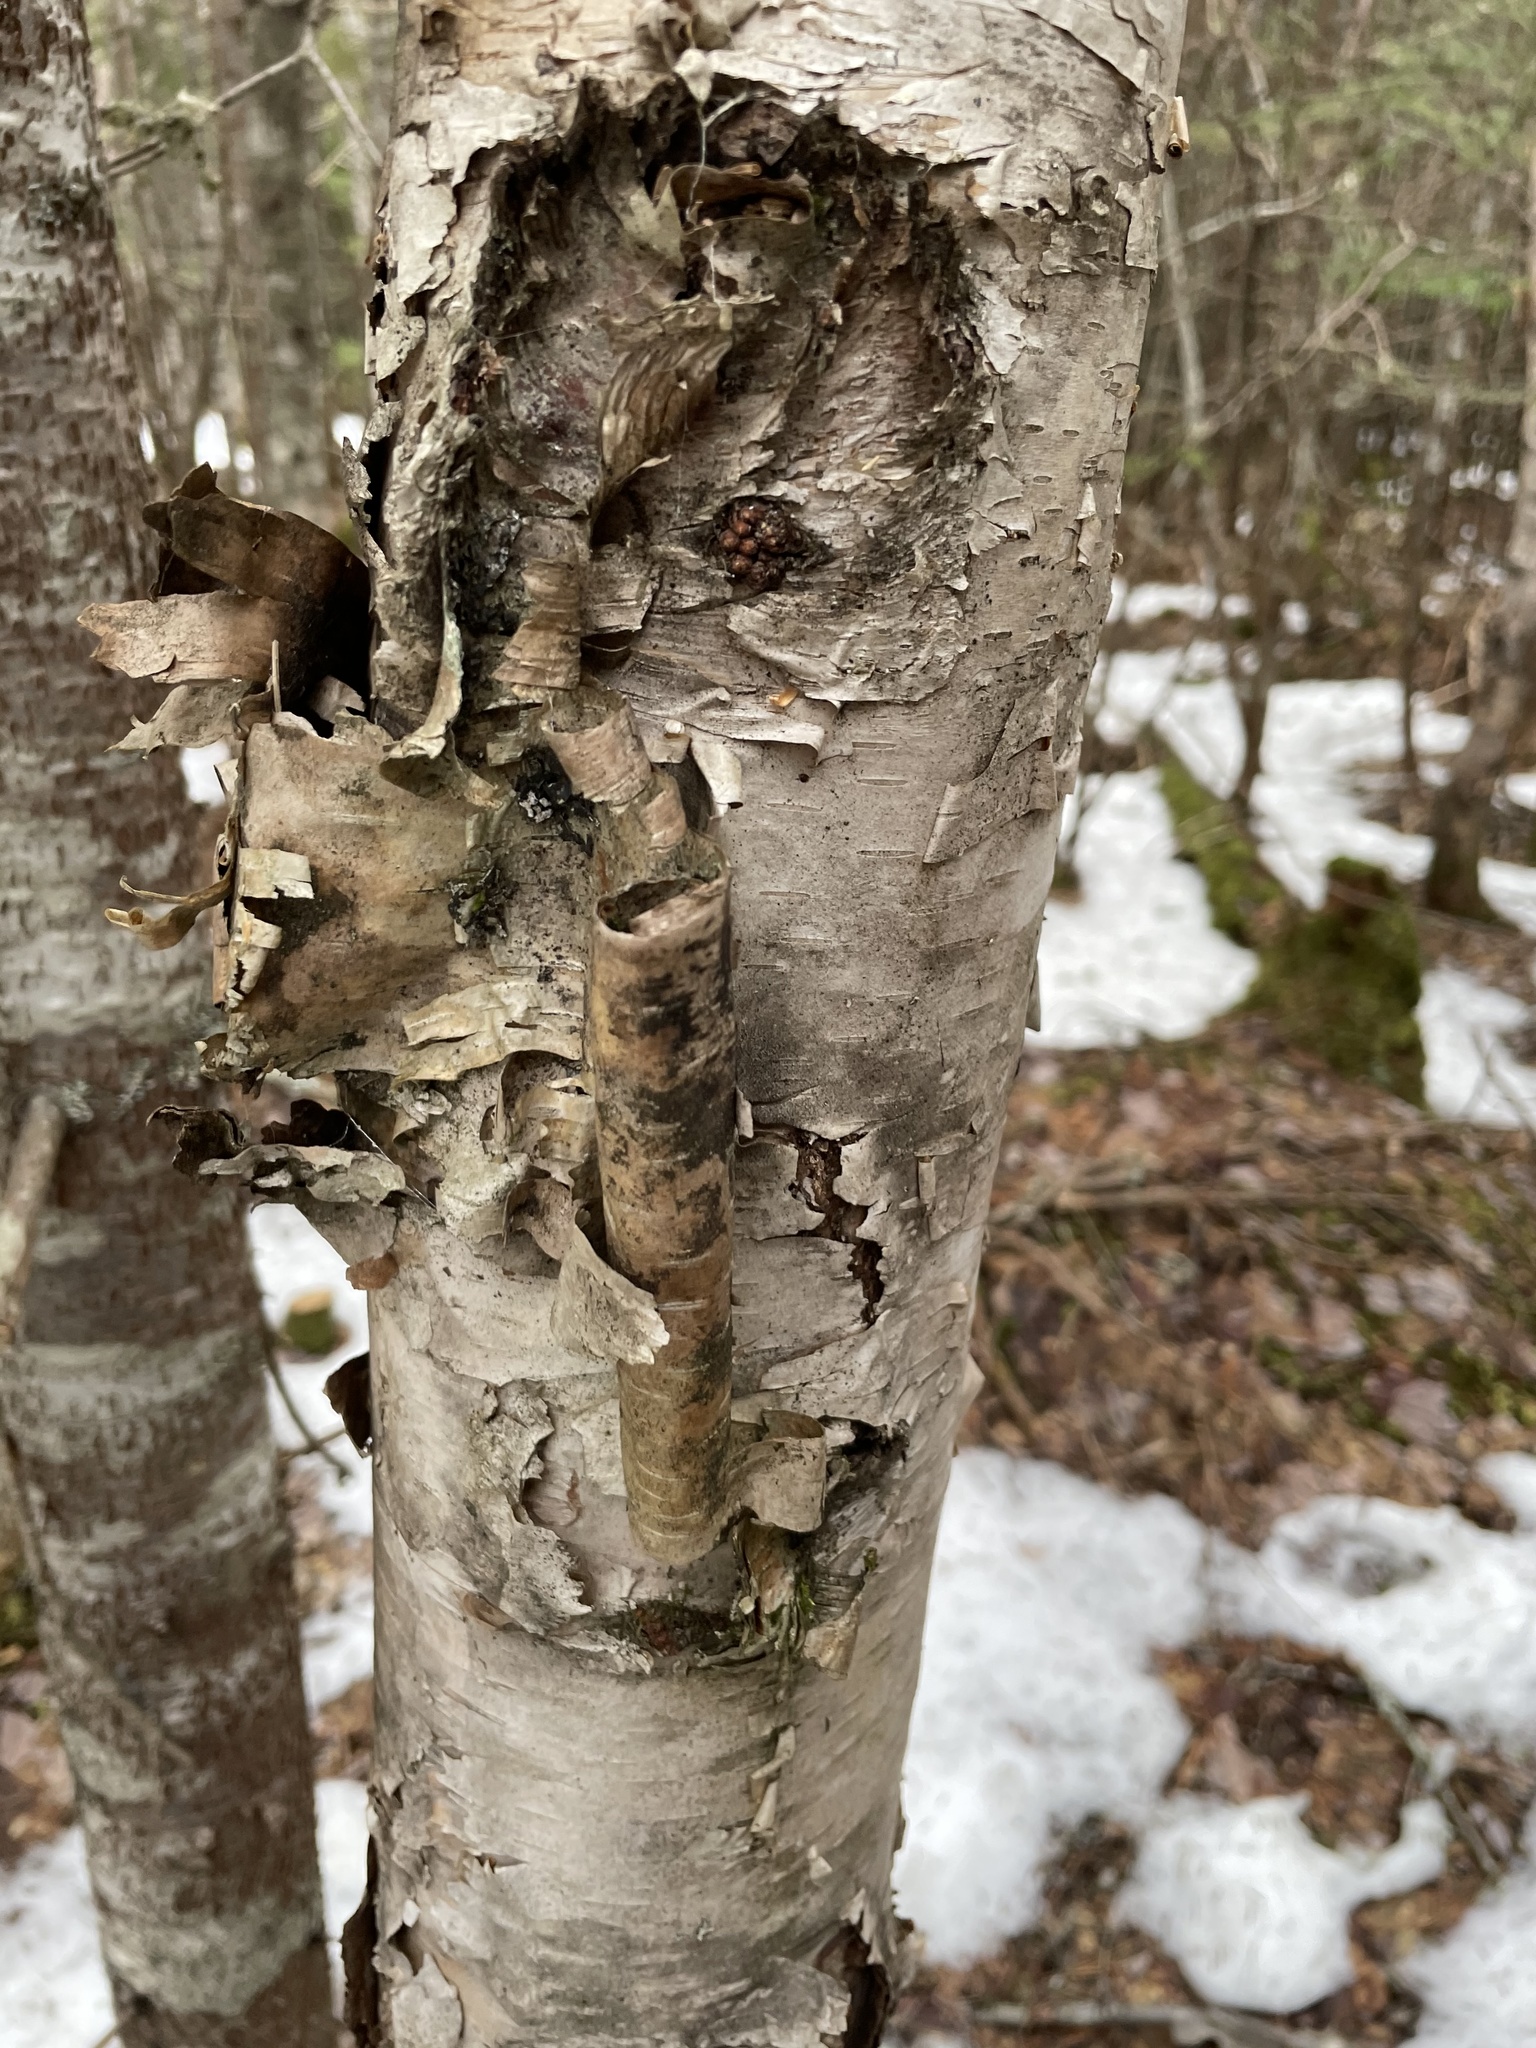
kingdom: Plantae
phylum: Tracheophyta
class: Magnoliopsida
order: Fagales
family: Betulaceae
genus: Betula
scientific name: Betula papyrifera
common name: Paper birch
